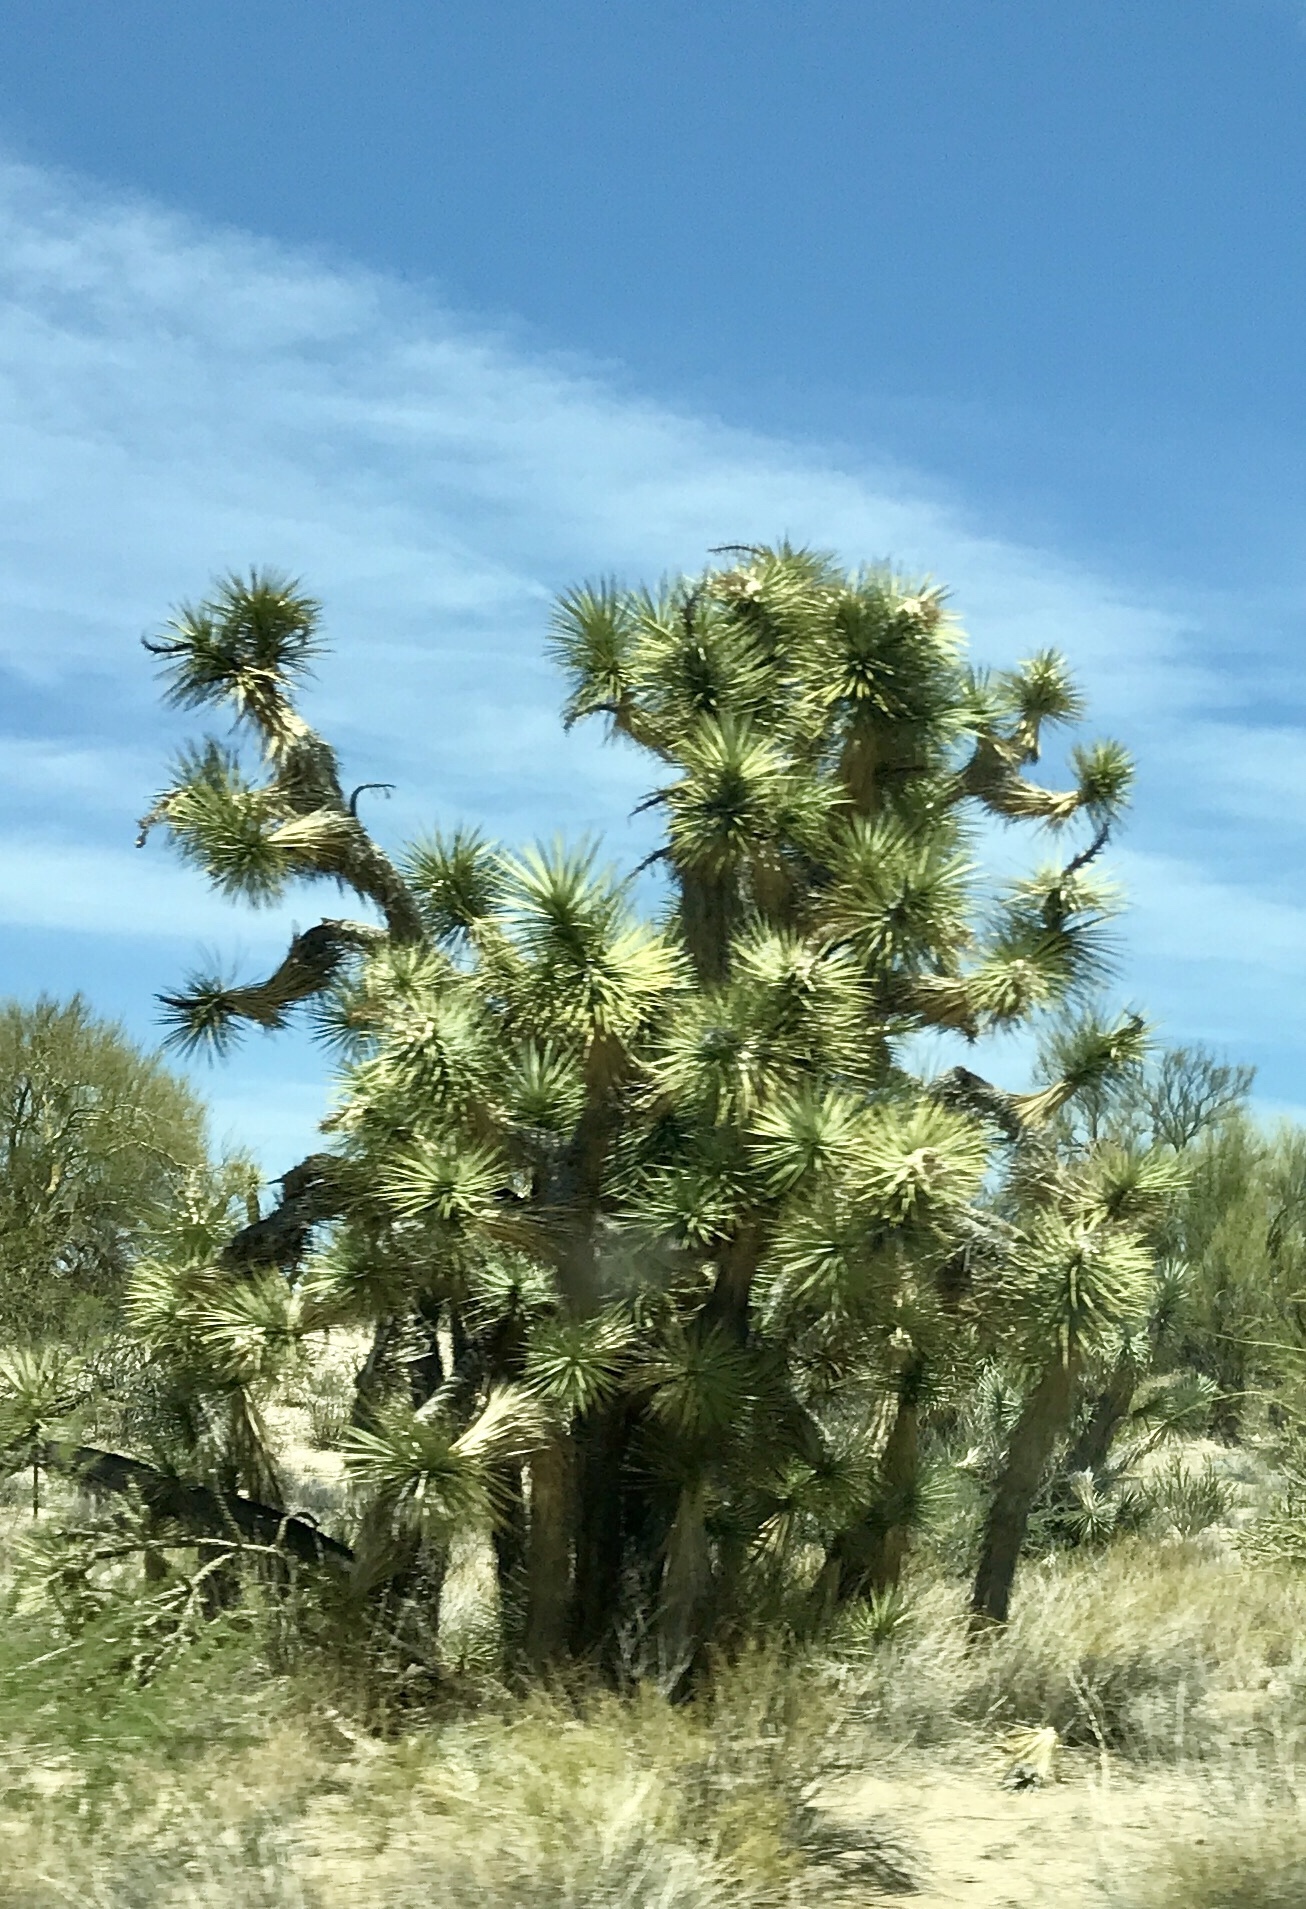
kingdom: Plantae
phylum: Tracheophyta
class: Liliopsida
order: Asparagales
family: Asparagaceae
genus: Yucca
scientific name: Yucca brevifolia
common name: Joshua tree
